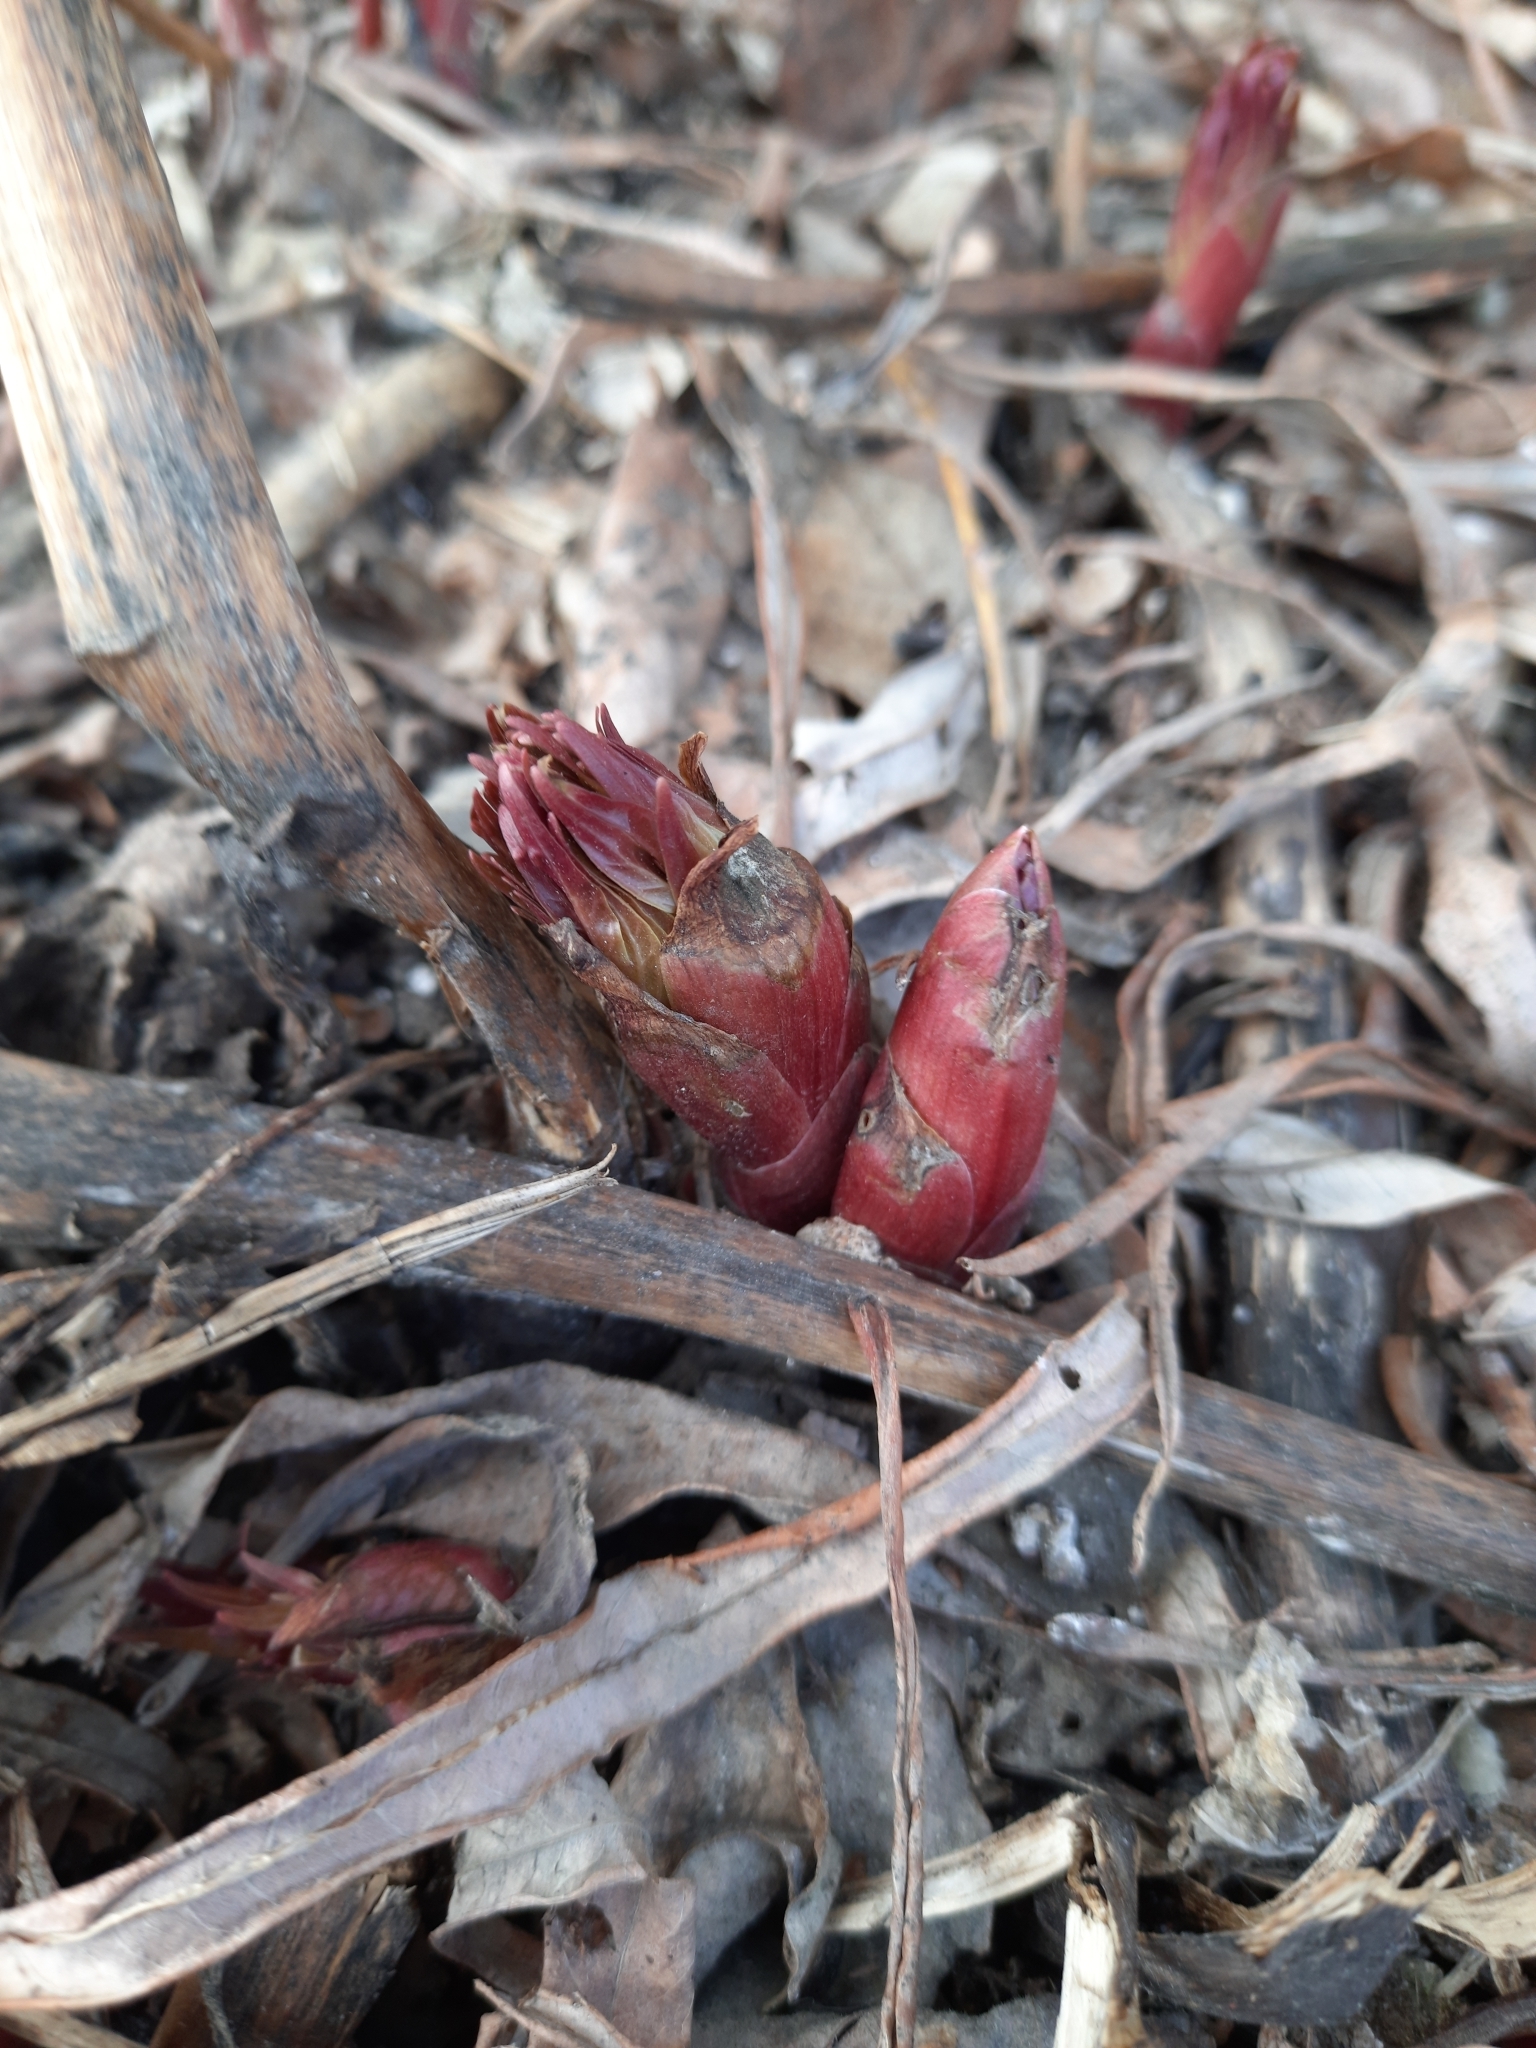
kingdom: Plantae
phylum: Tracheophyta
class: Magnoliopsida
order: Saxifragales
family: Paeoniaceae
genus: Paeonia
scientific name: Paeonia anomala
